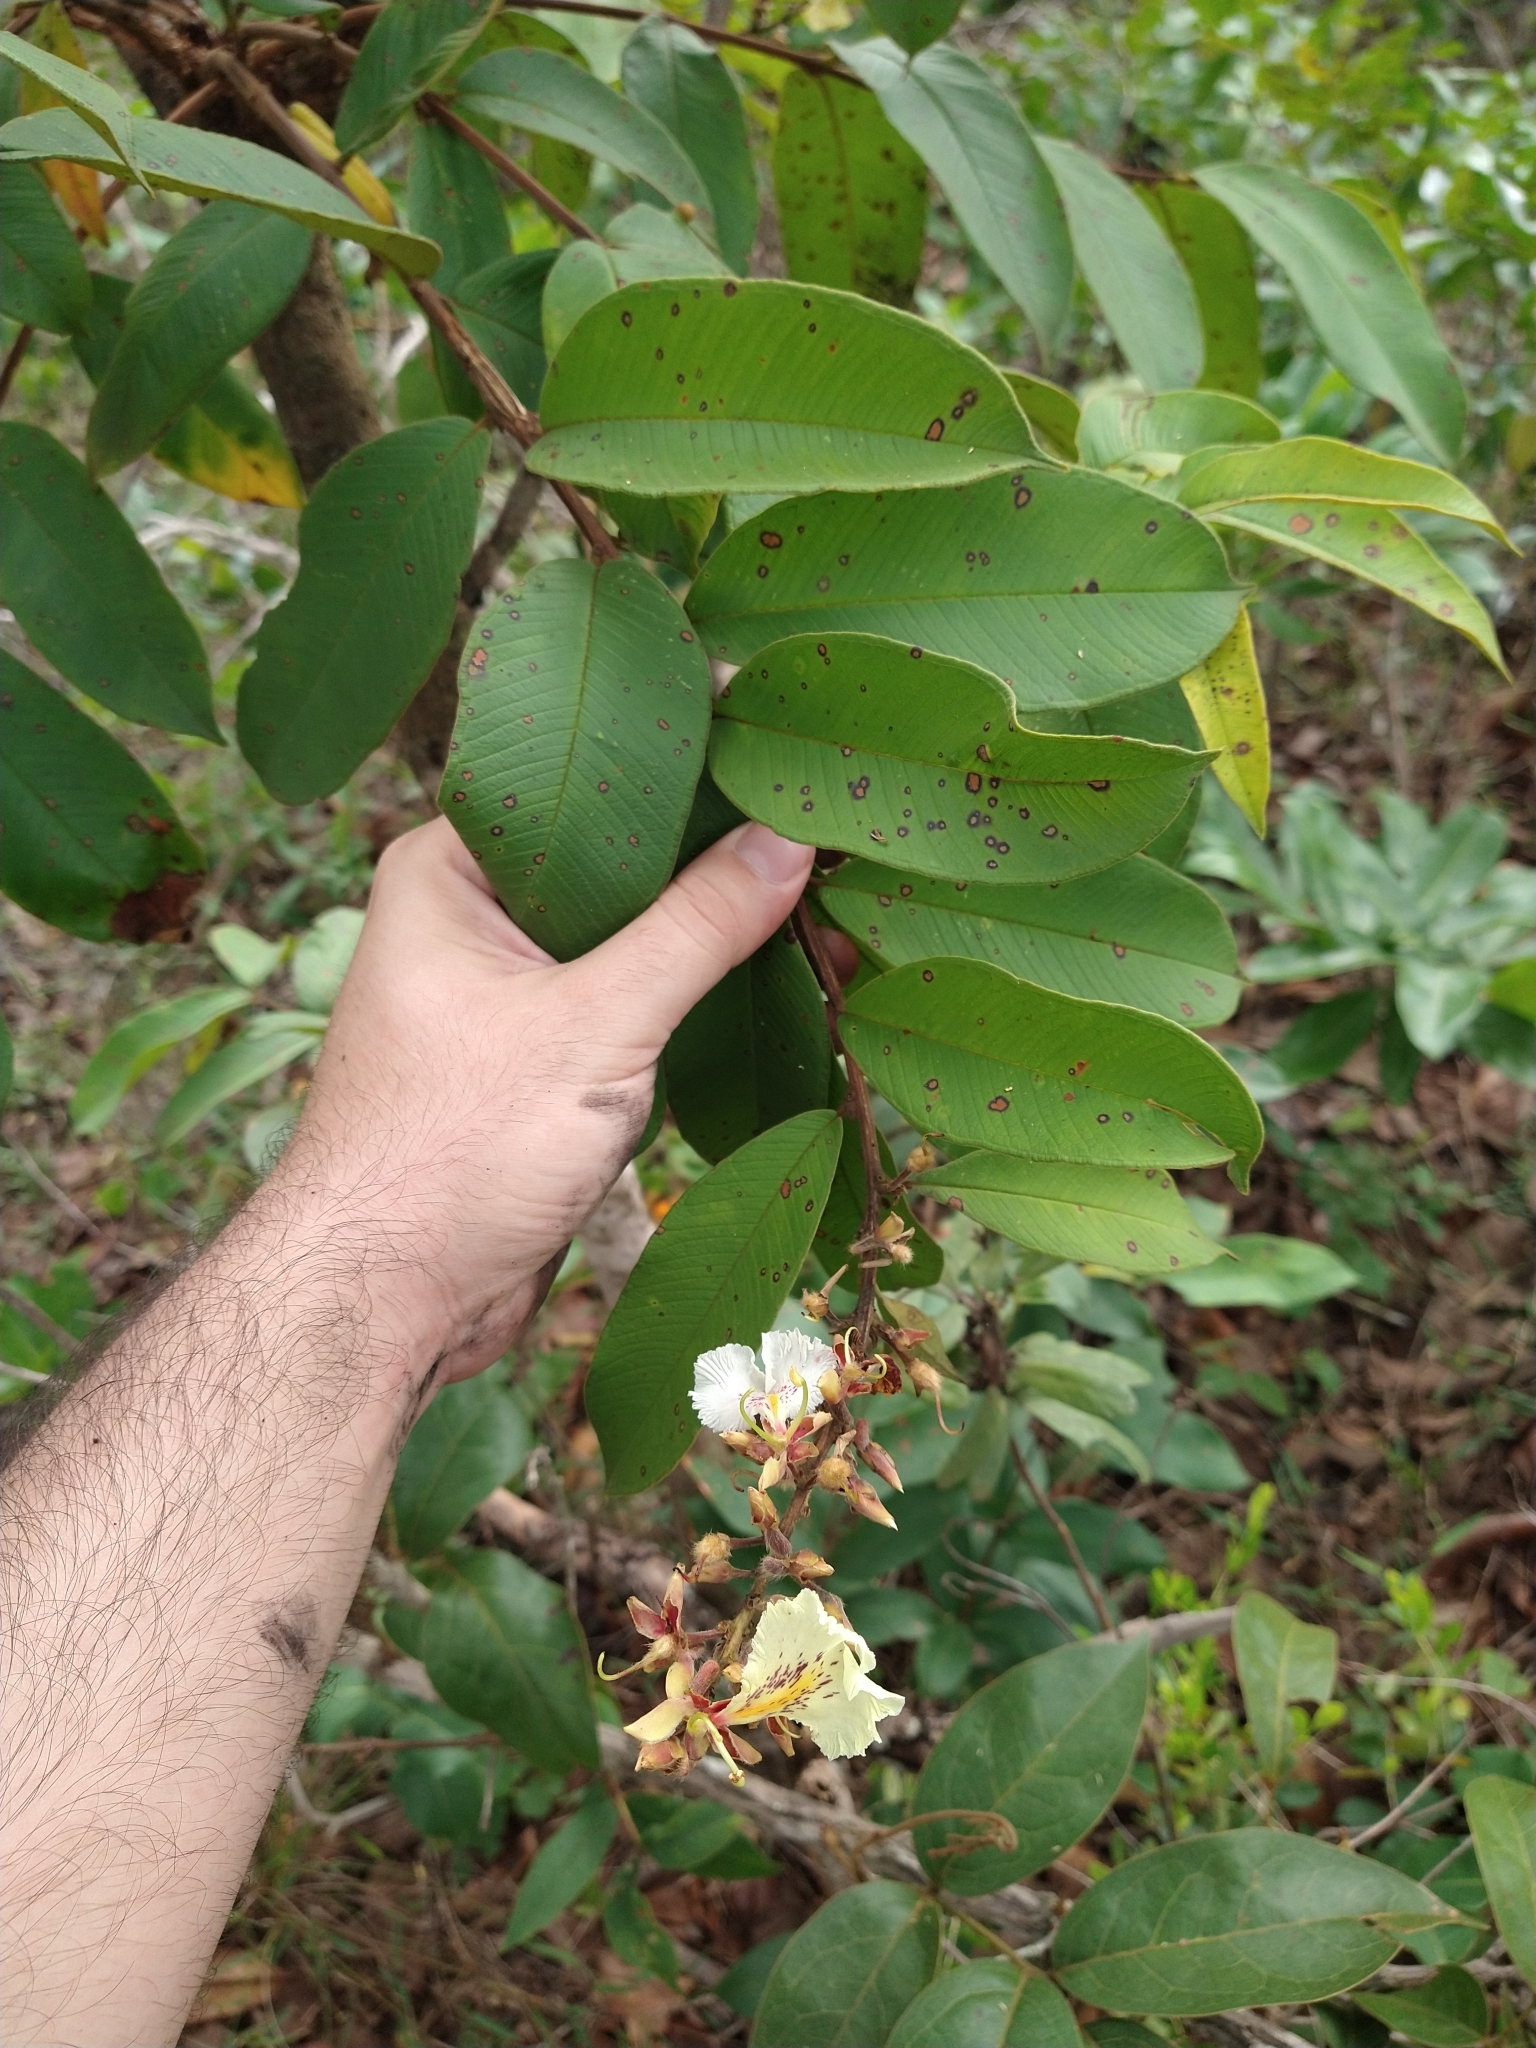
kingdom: Plantae
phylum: Tracheophyta
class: Magnoliopsida
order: Myrtales
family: Vochysiaceae
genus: Qualea
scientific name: Qualea multiflora
